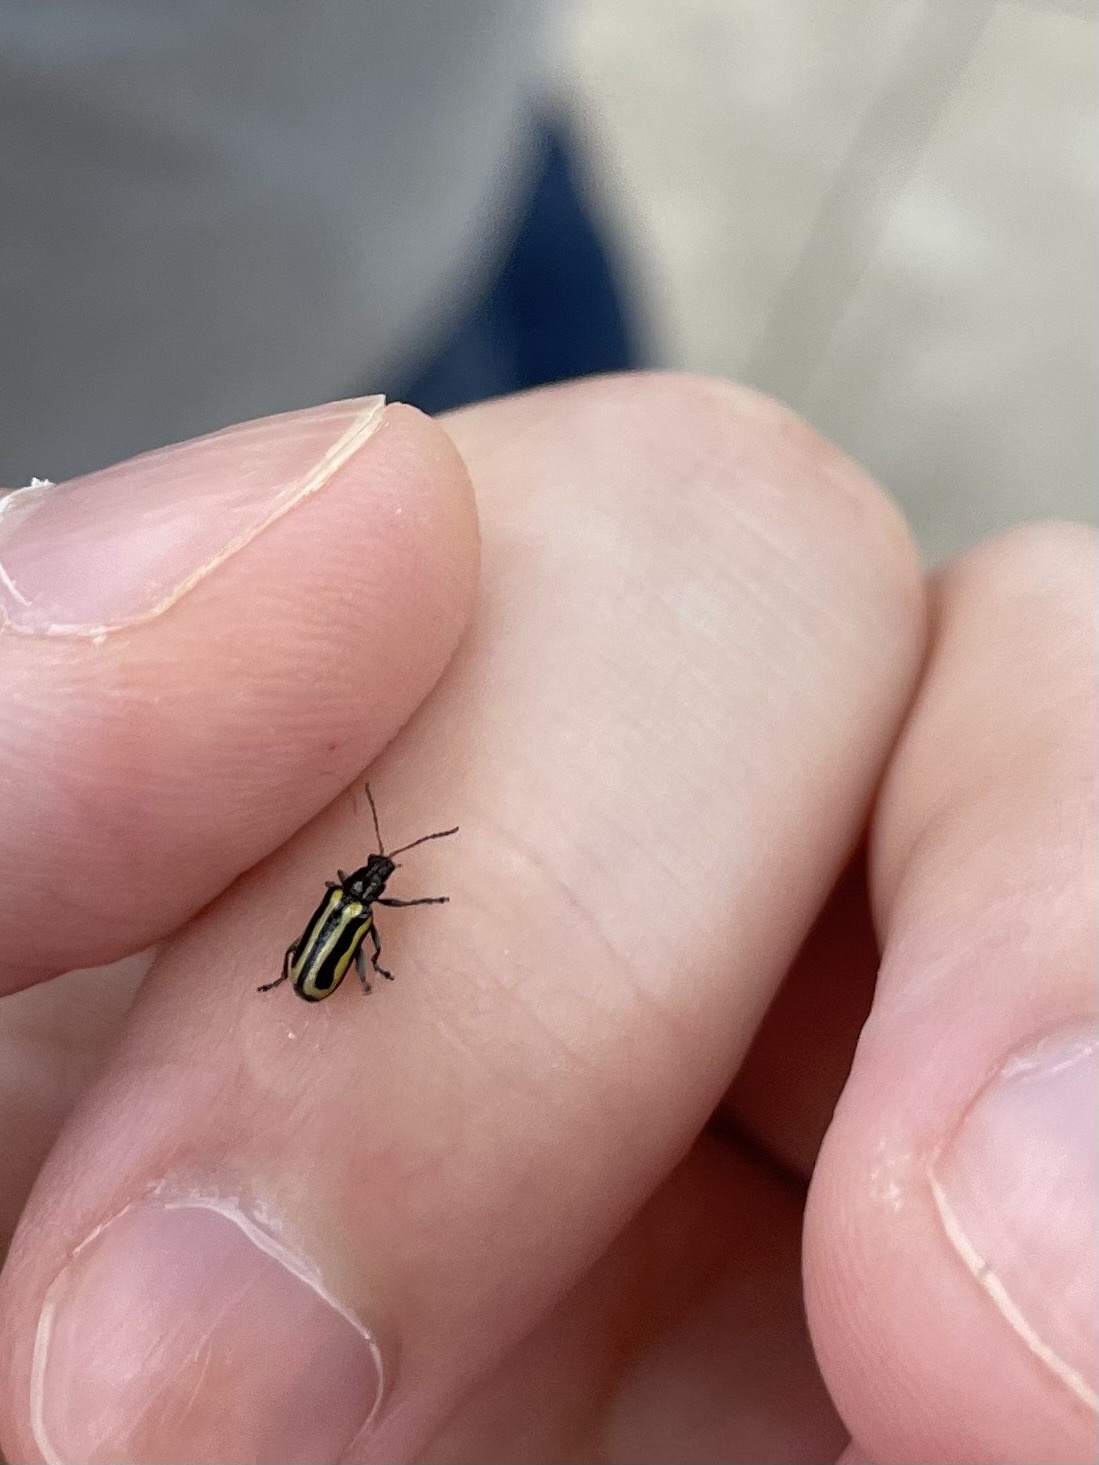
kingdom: Animalia
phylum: Arthropoda
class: Insecta
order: Coleoptera
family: Chrysomelidae
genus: Agasicles
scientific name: Agasicles hygrophila
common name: Alligatorweed flea beetle
